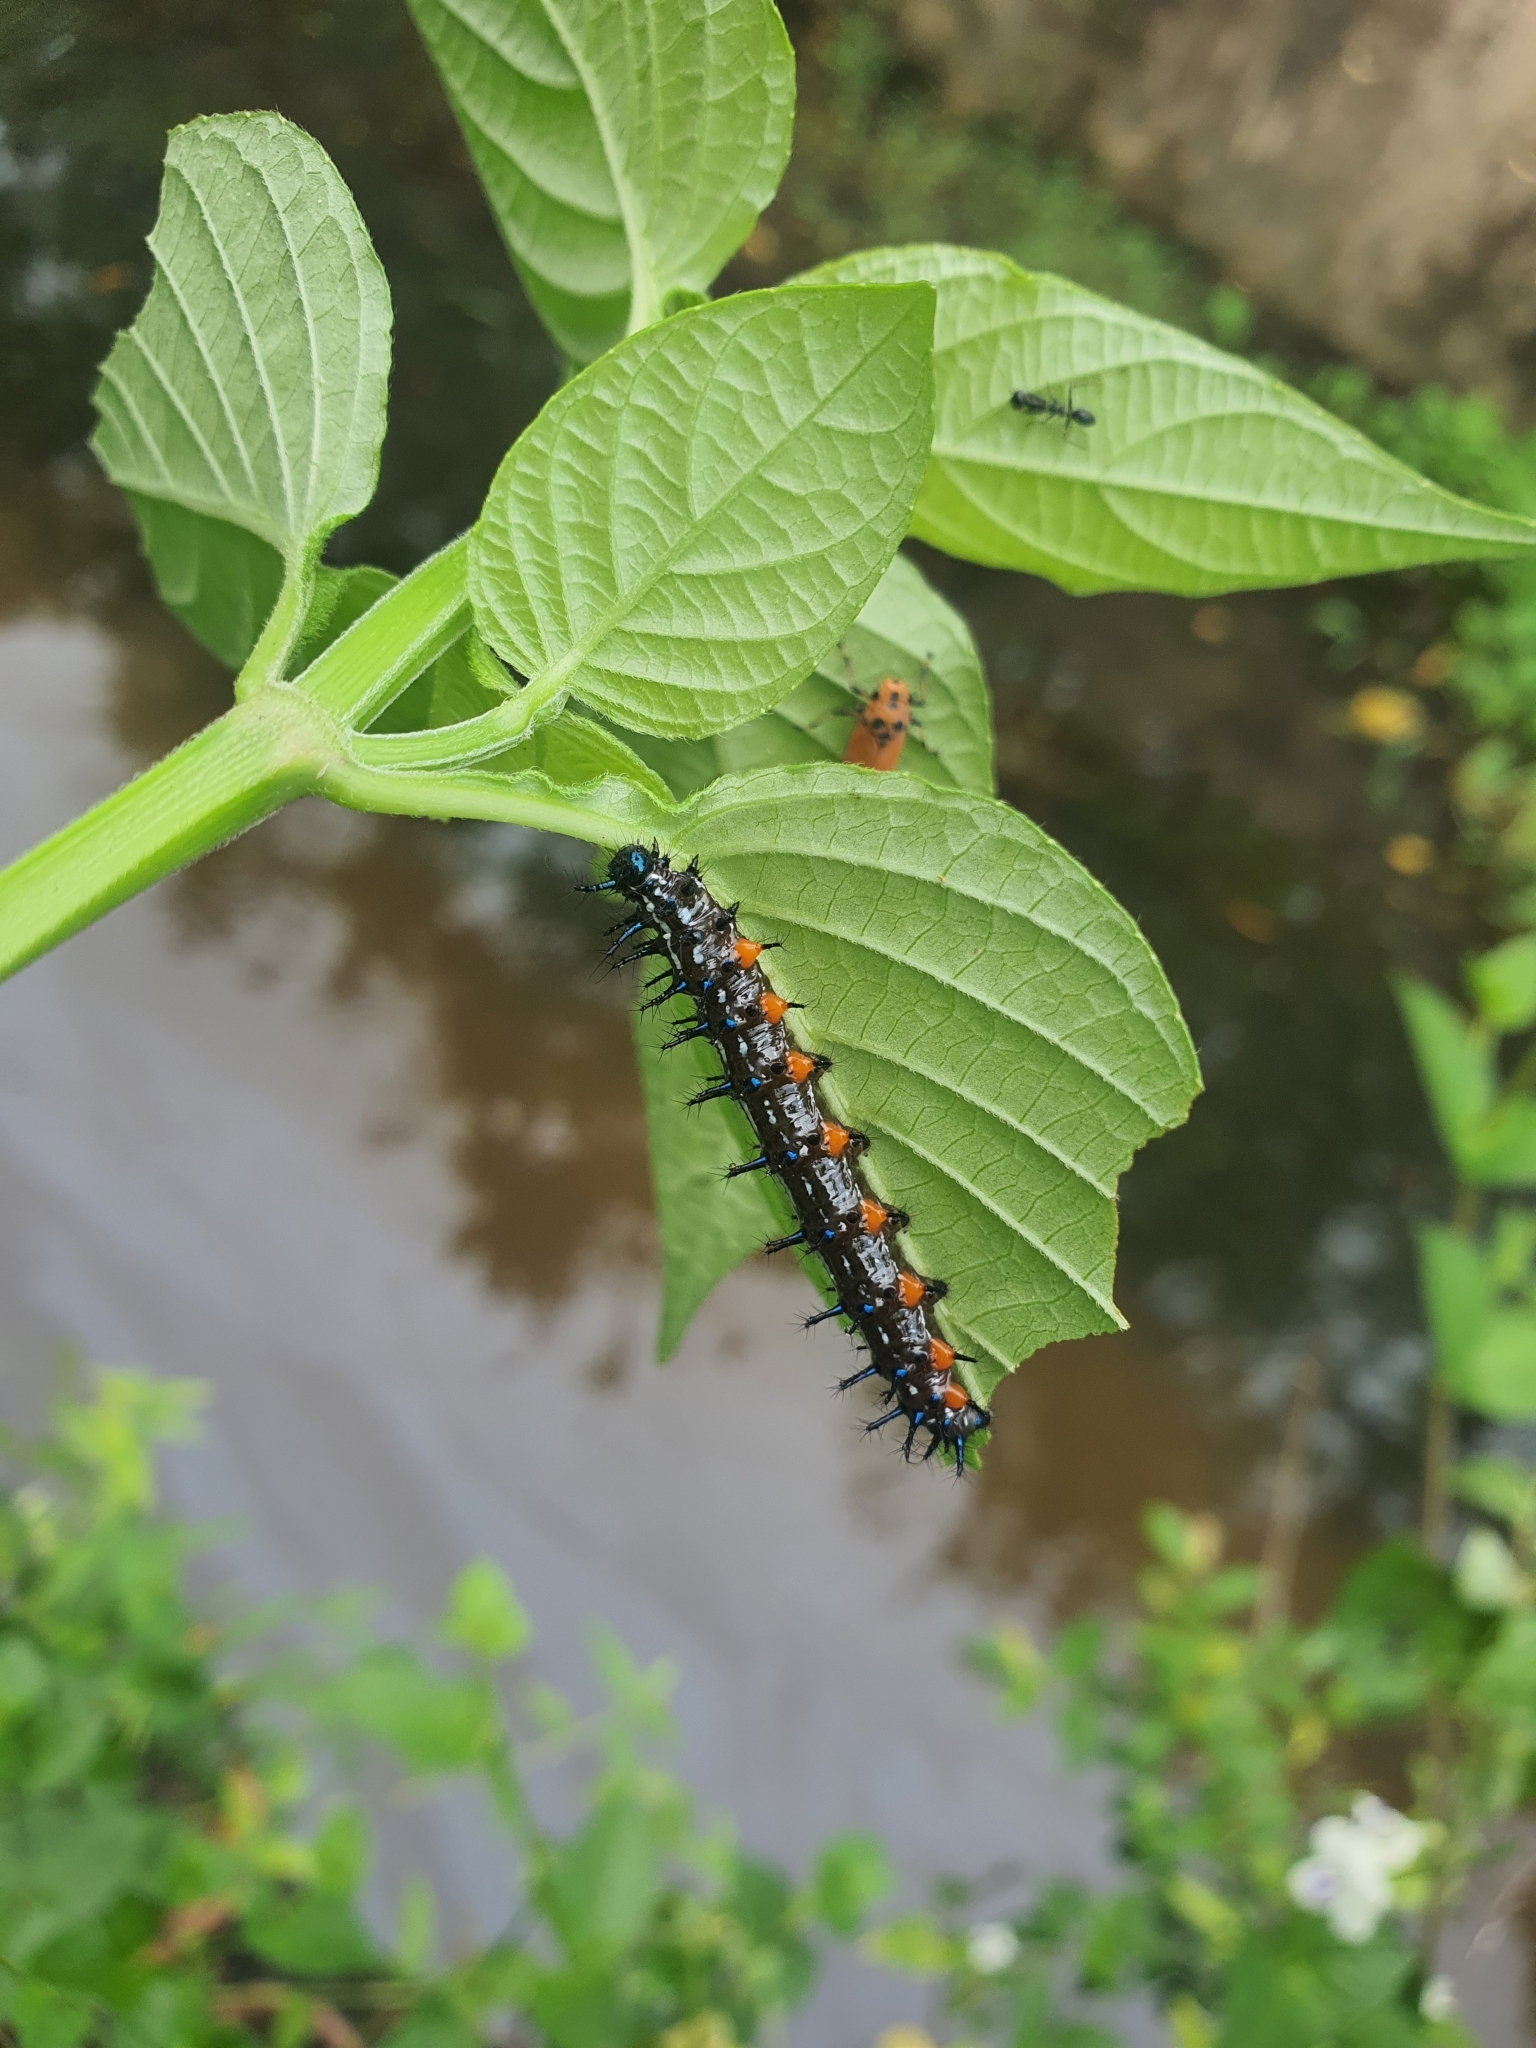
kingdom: Animalia
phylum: Arthropoda
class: Insecta
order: Lepidoptera
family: Nymphalidae
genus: Doleschallia
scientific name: Doleschallia bisaltide
